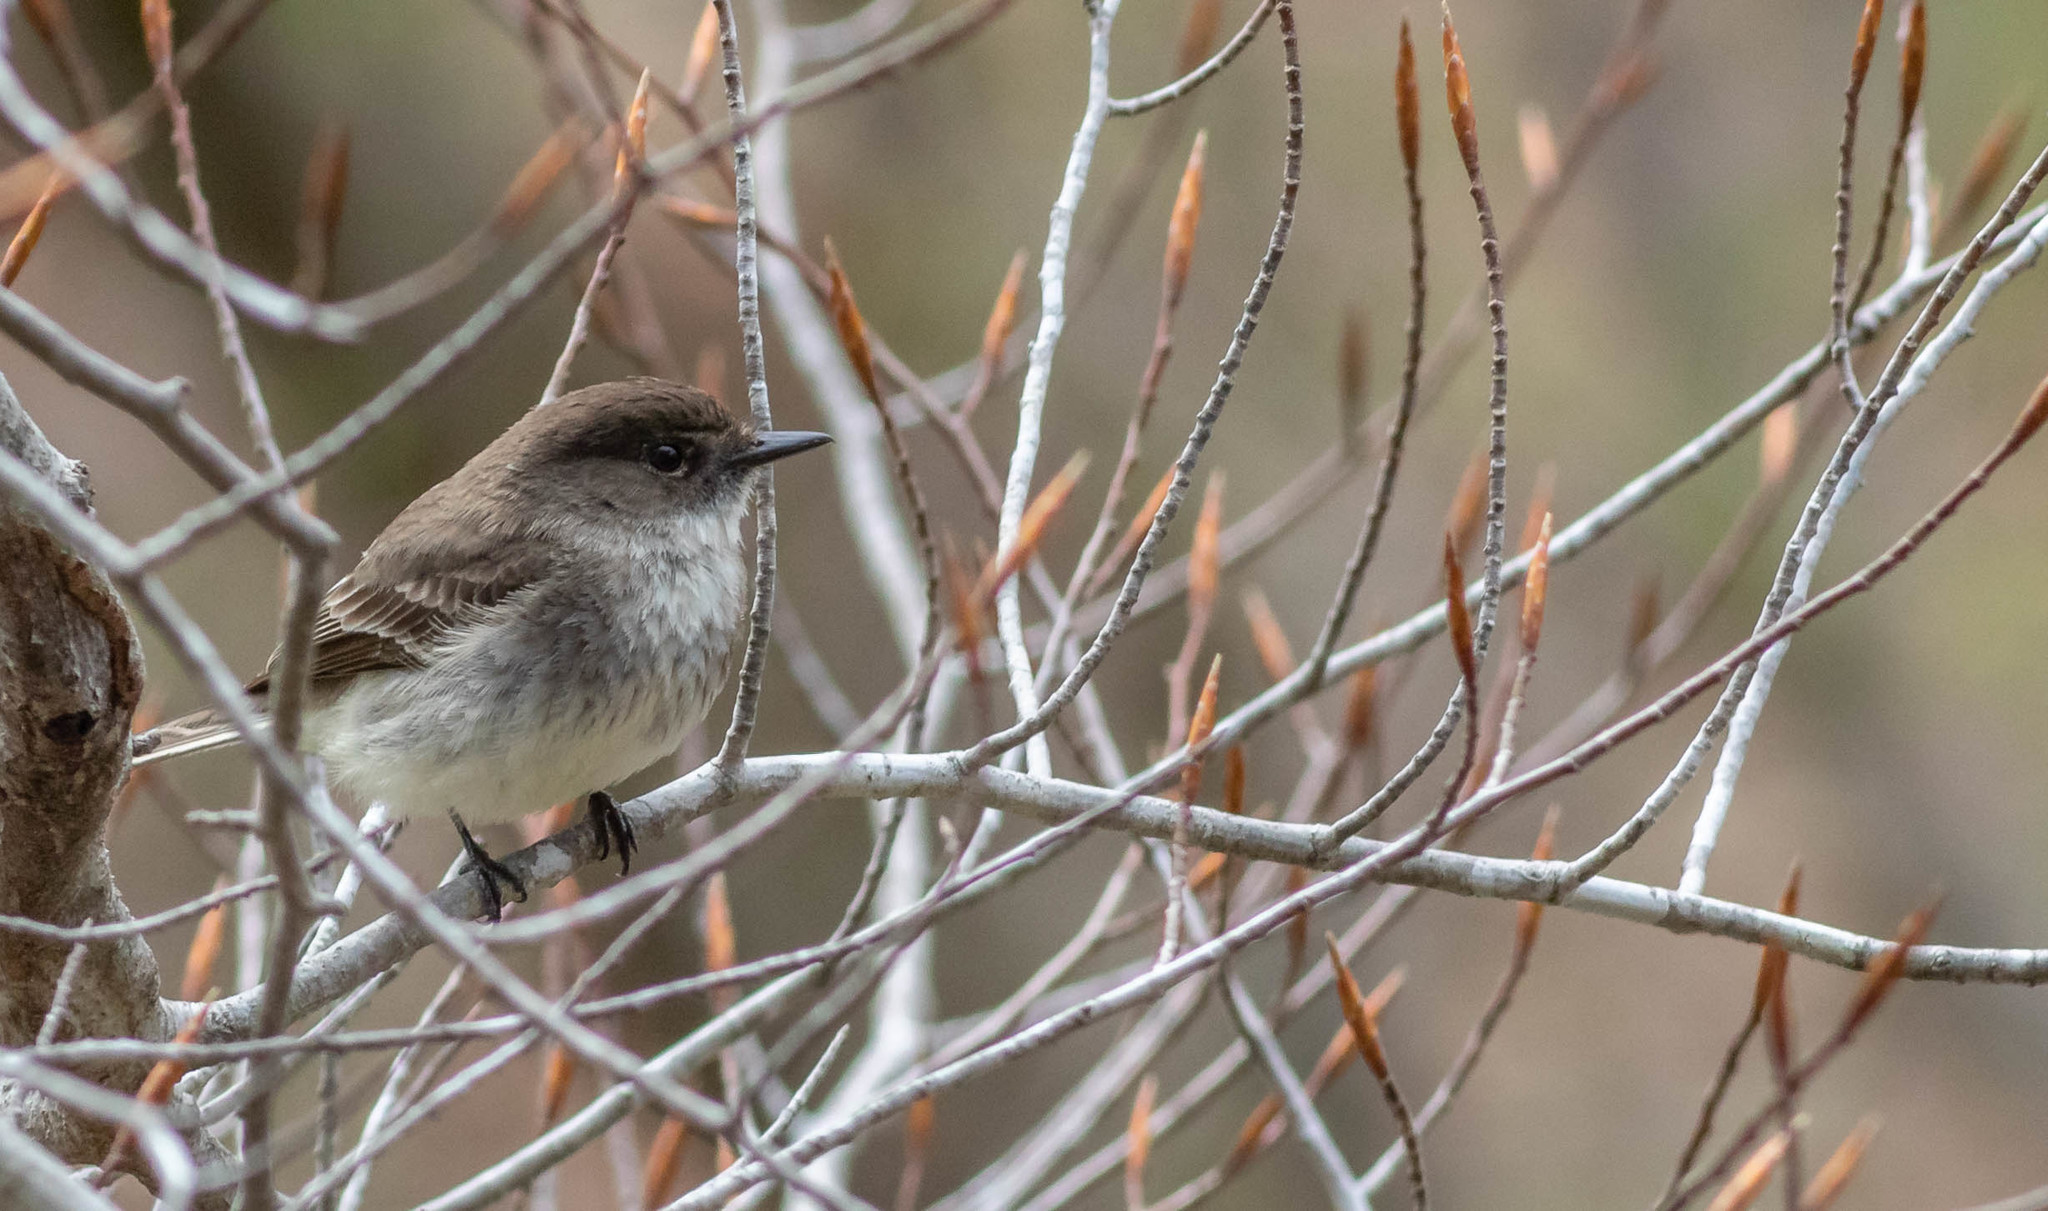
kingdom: Animalia
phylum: Chordata
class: Aves
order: Passeriformes
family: Tyrannidae
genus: Sayornis
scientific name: Sayornis phoebe
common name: Eastern phoebe
